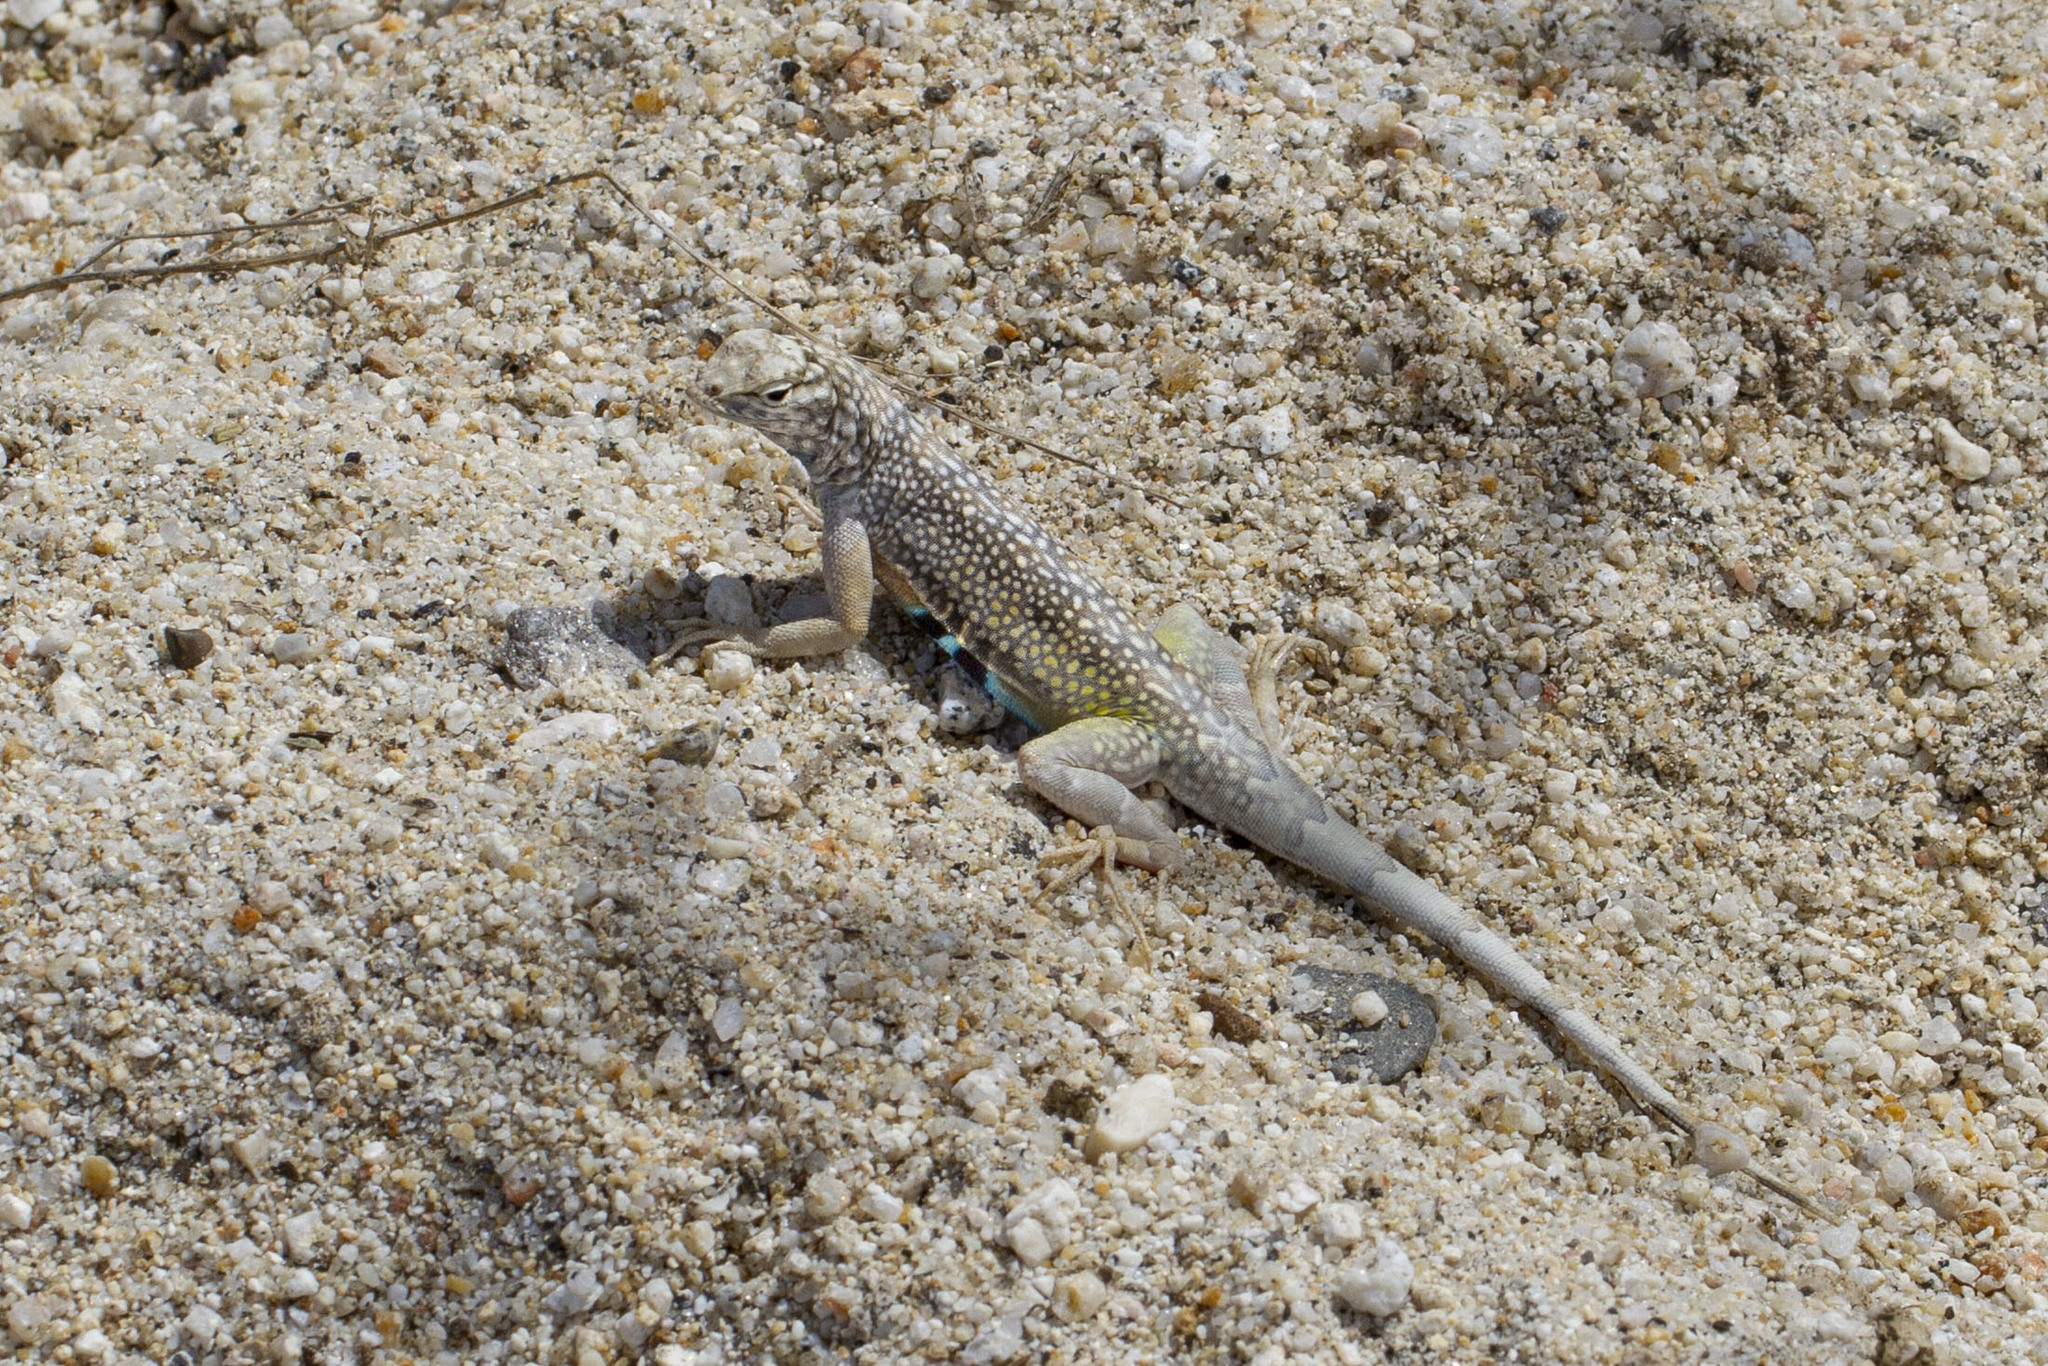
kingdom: Animalia
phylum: Chordata
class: Squamata
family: Phrynosomatidae
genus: Callisaurus
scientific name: Callisaurus draconoides
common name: Zebra-tailed lizard
